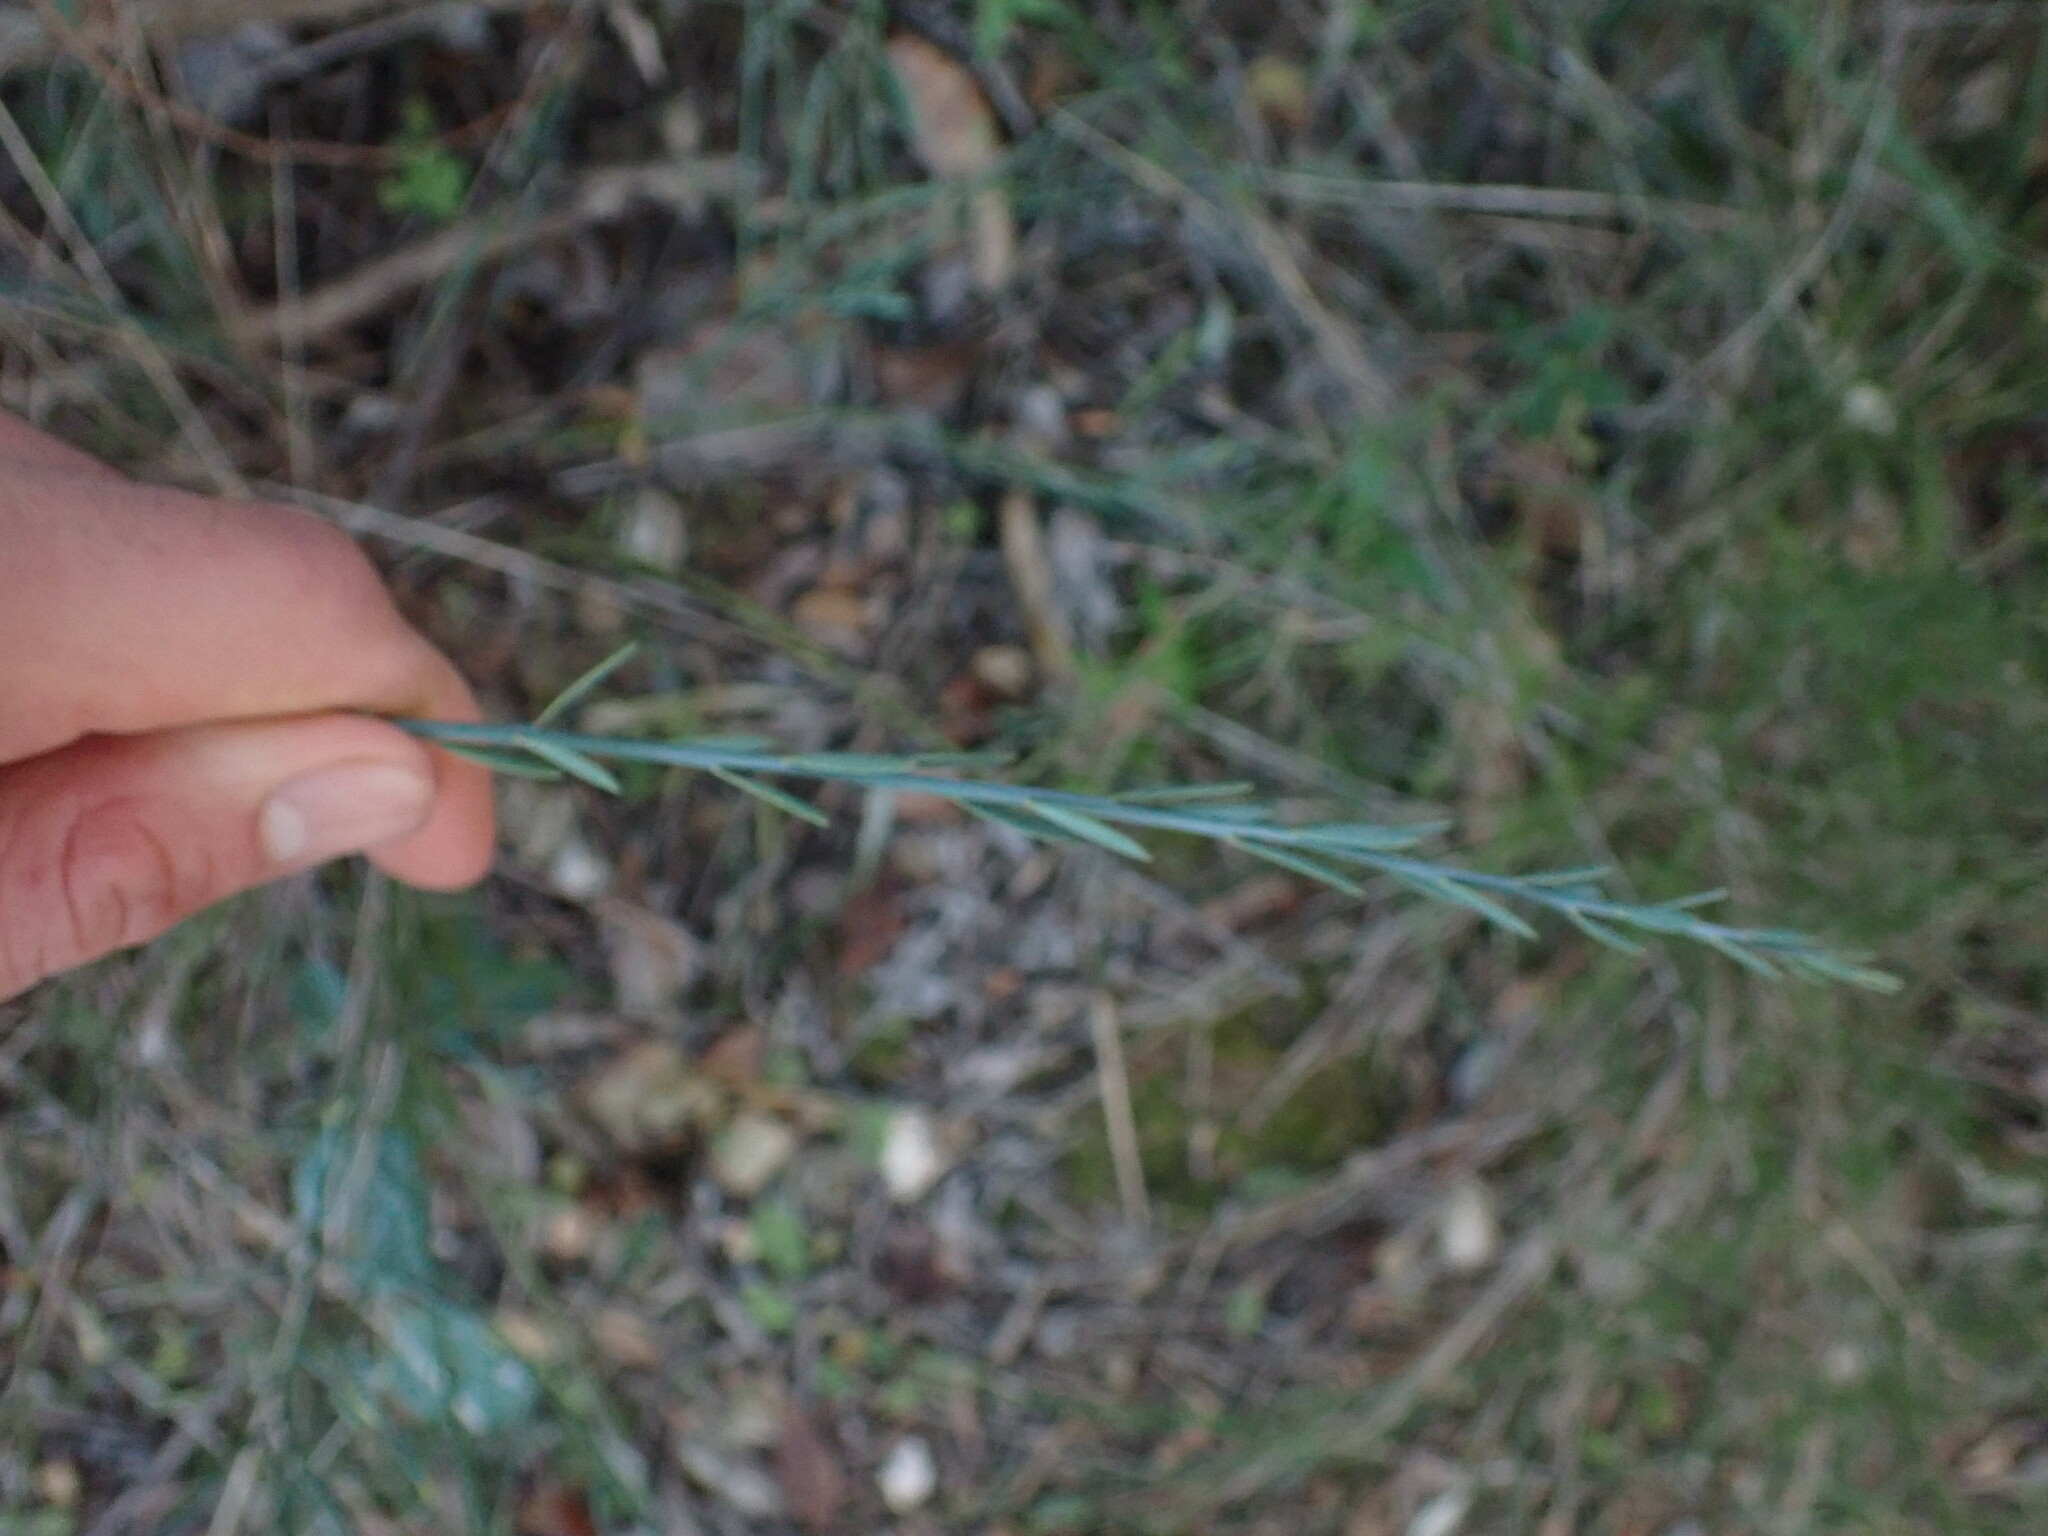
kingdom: Plantae
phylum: Tracheophyta
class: Magnoliopsida
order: Santalales
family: Santalaceae
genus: Osyris
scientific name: Osyris alba
